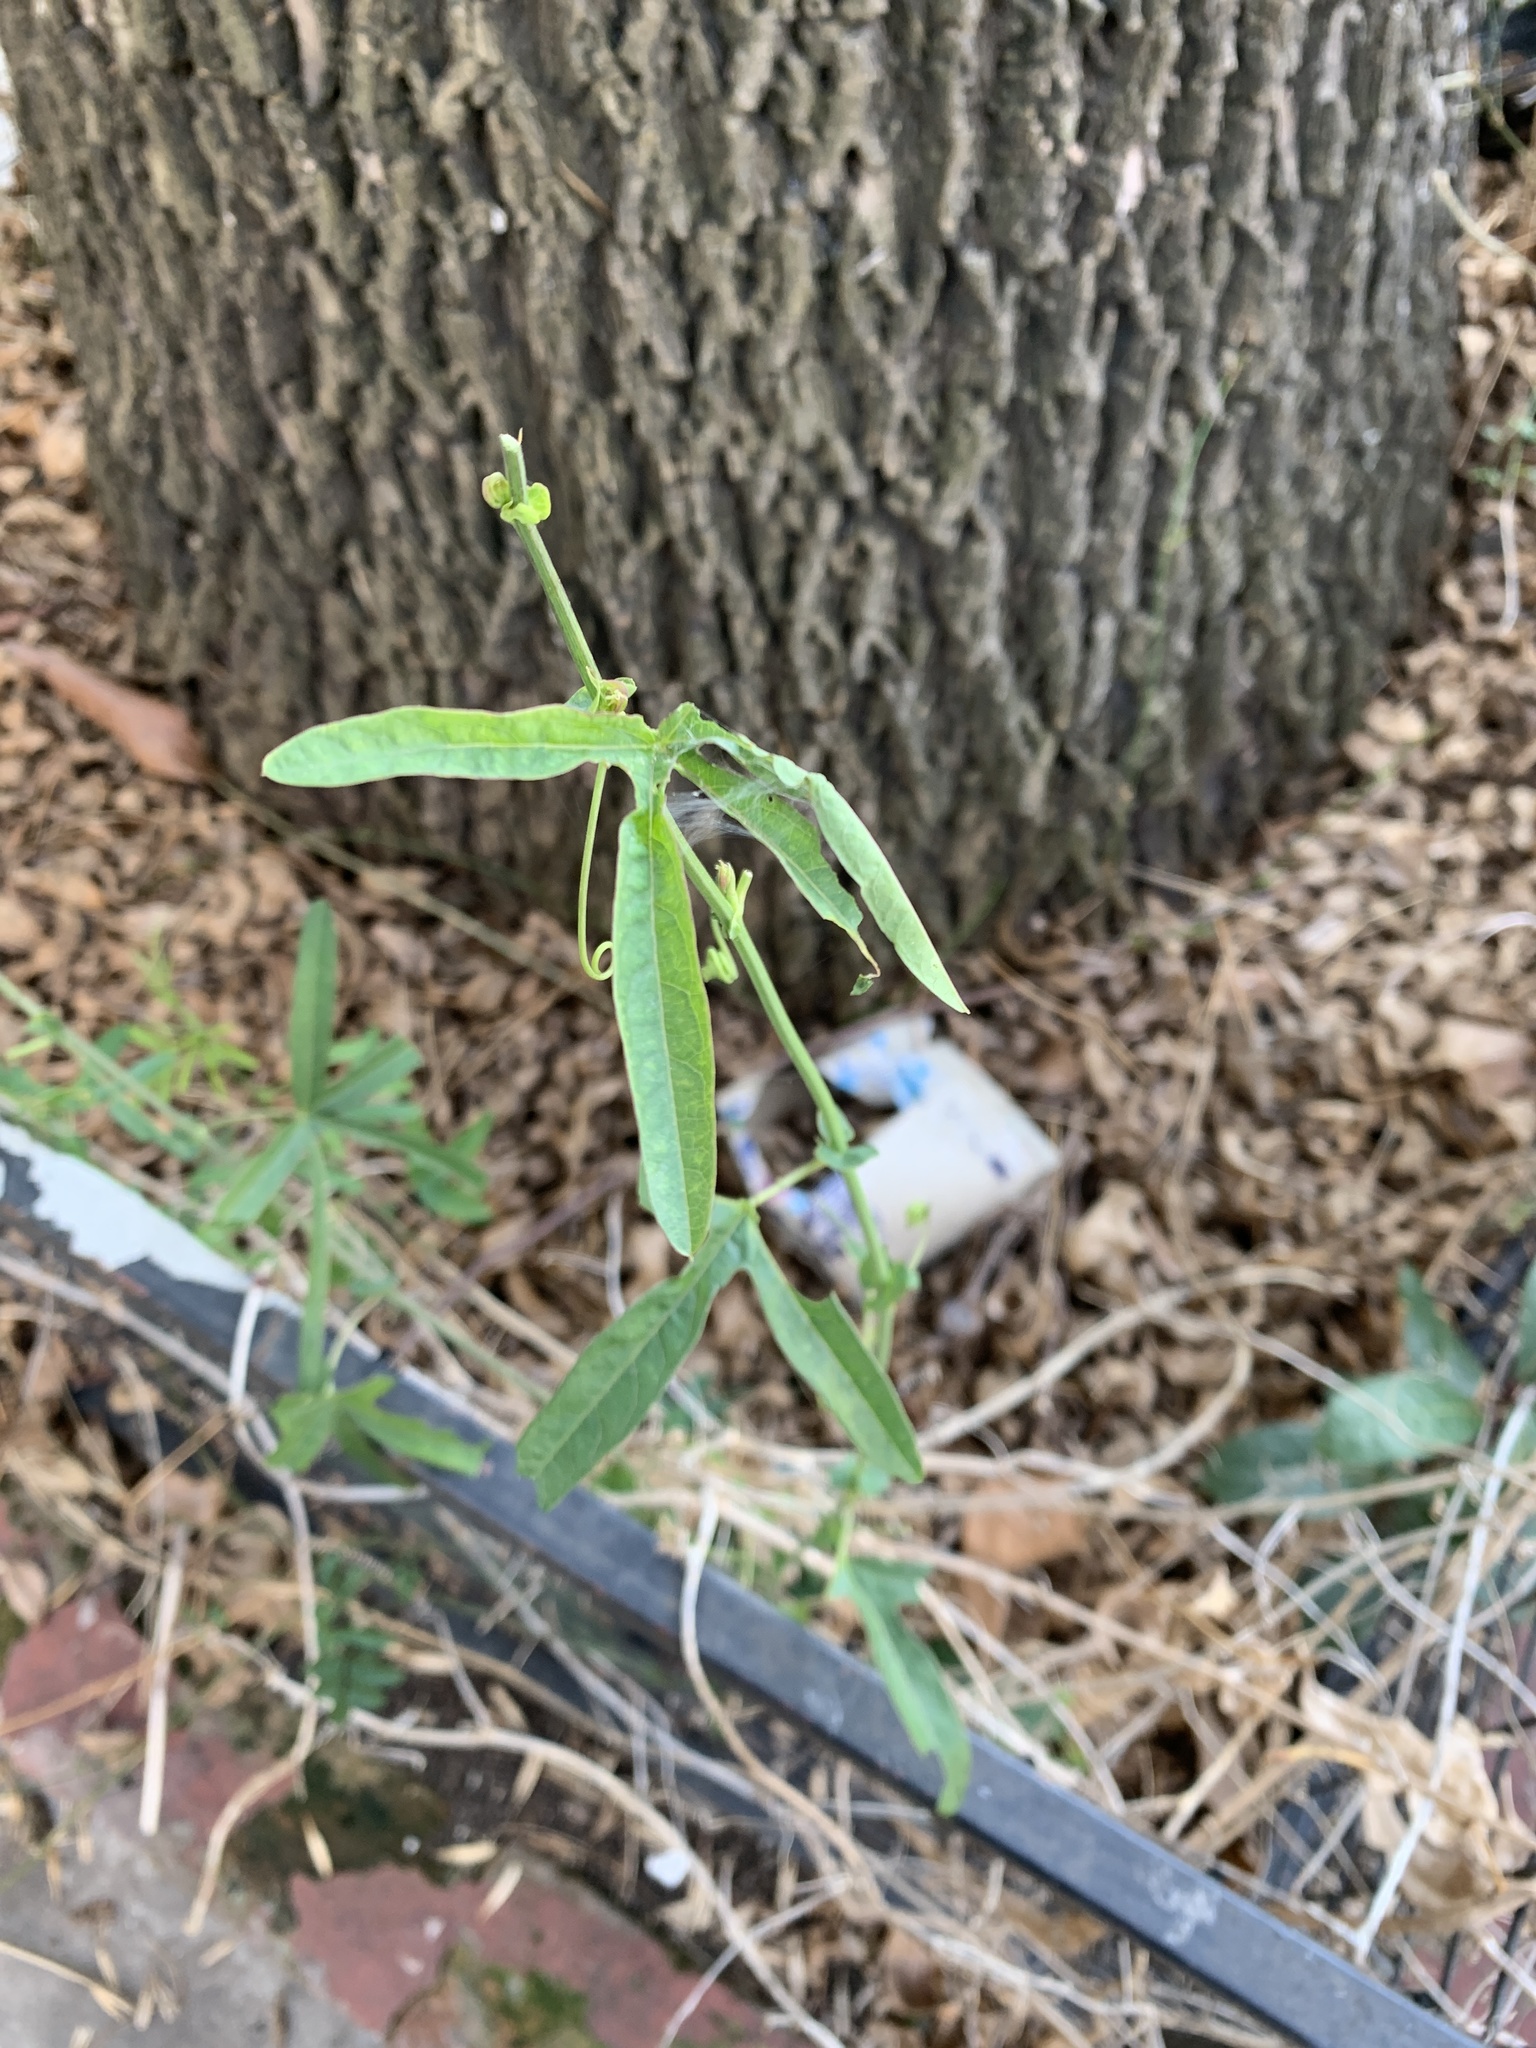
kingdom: Plantae
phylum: Tracheophyta
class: Magnoliopsida
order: Malpighiales
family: Passifloraceae
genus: Passiflora
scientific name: Passiflora caerulea
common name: Blue passionflower
